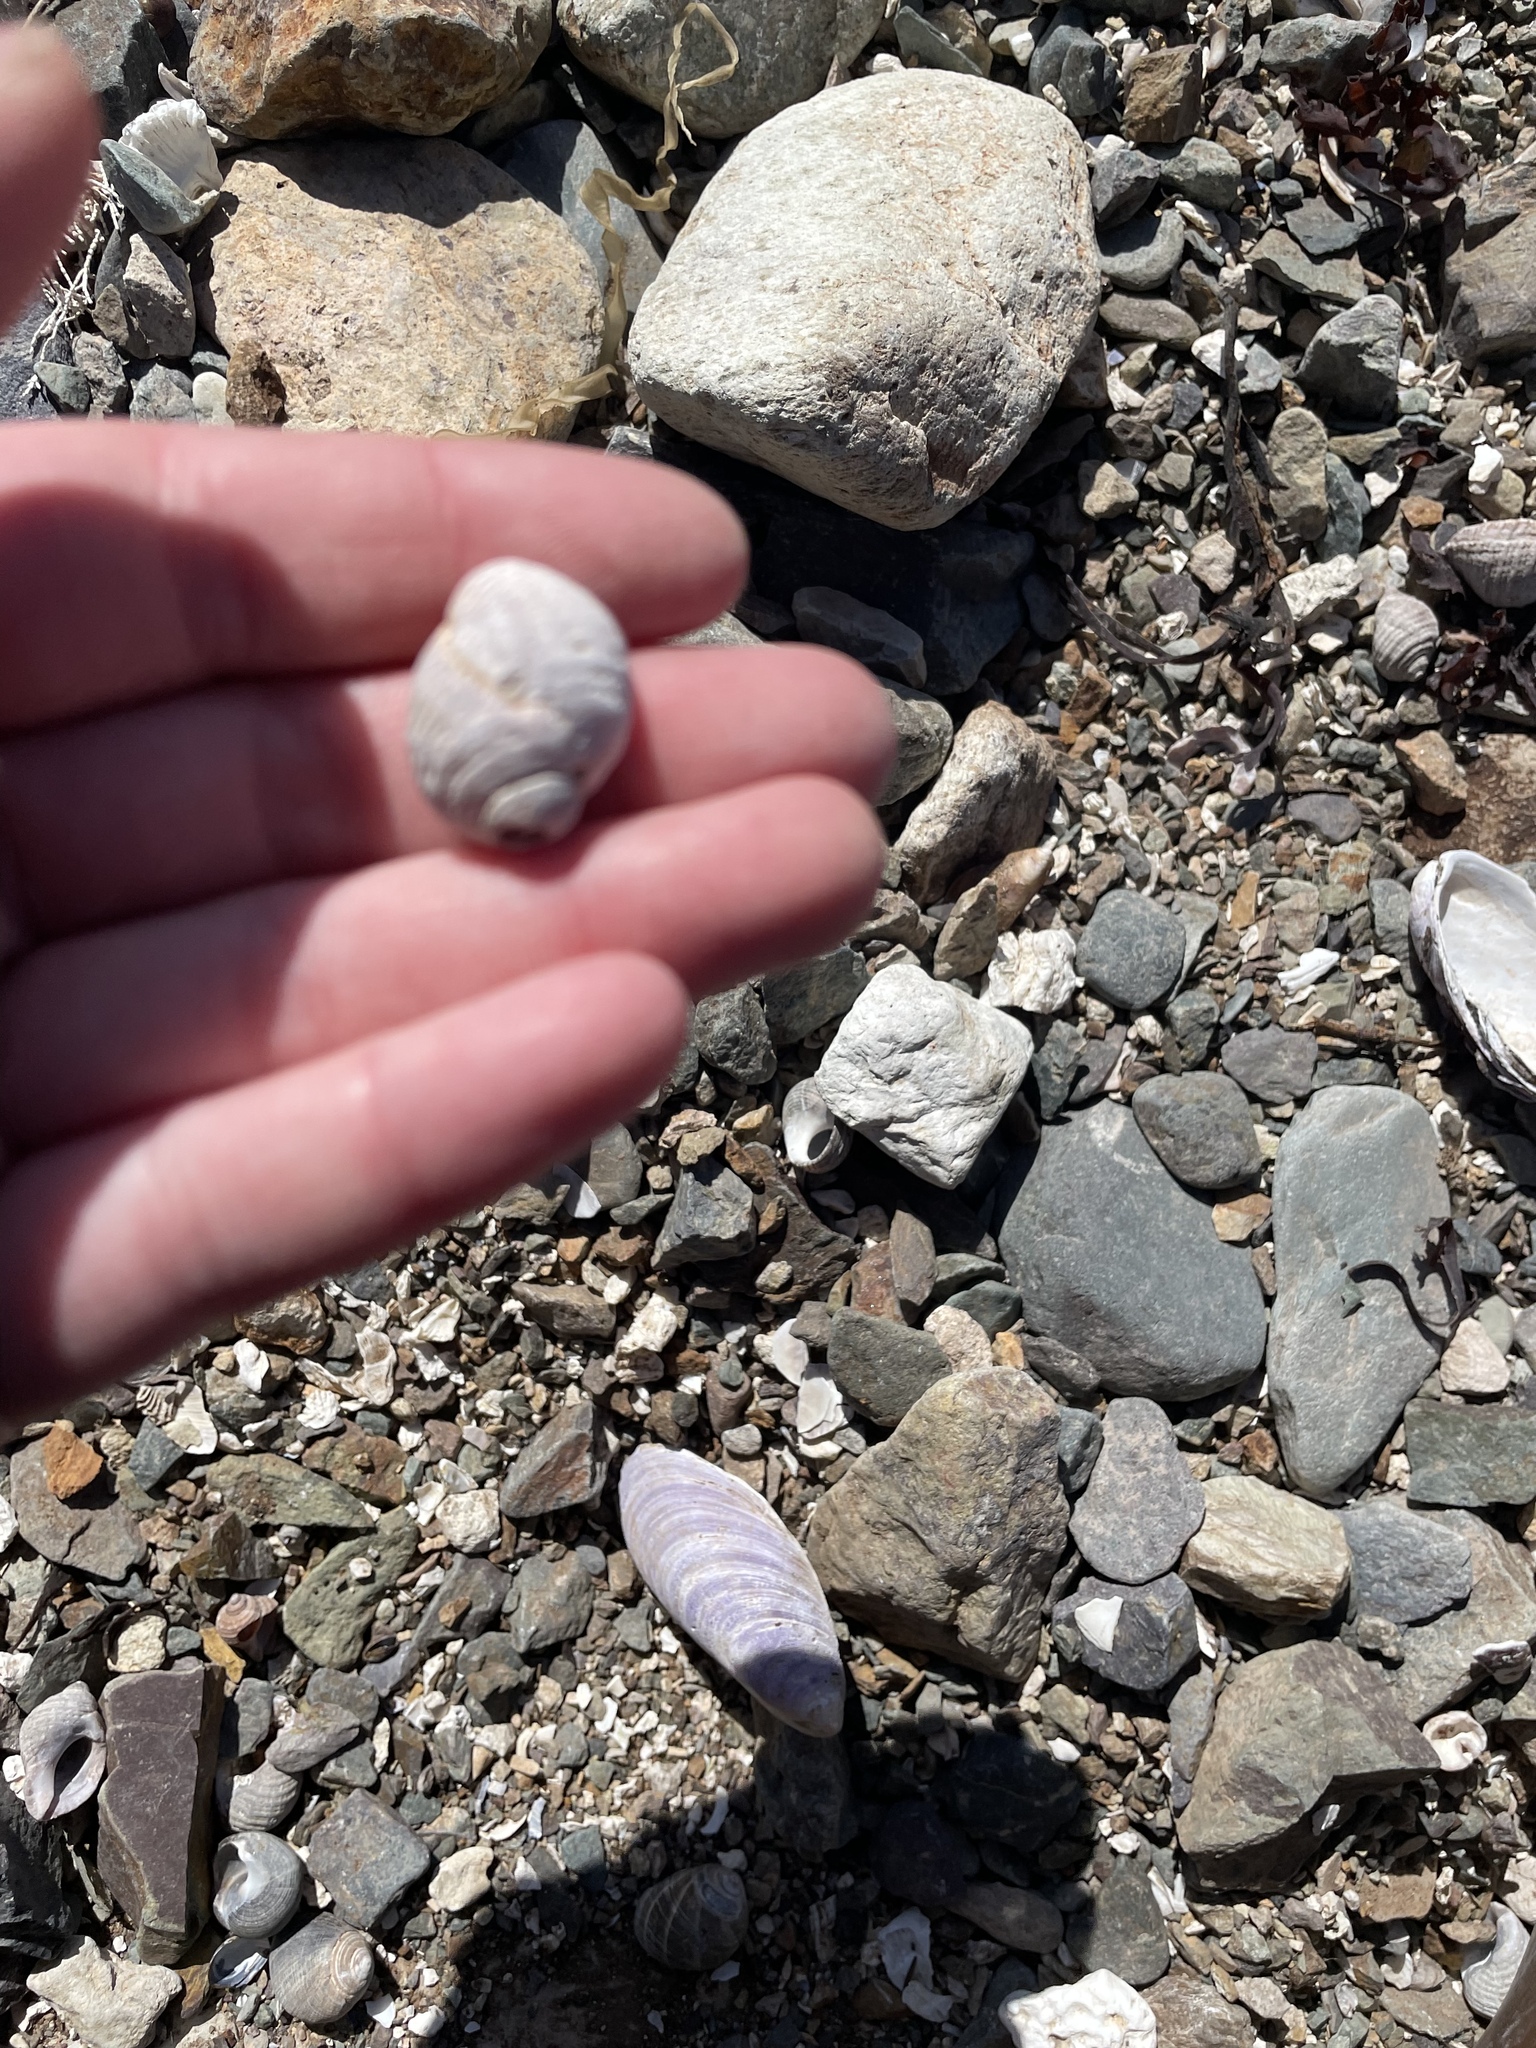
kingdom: Animalia
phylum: Mollusca
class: Gastropoda
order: Neogastropoda
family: Muricidae
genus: Nucella
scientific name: Nucella lapillus
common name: Dog whelk
